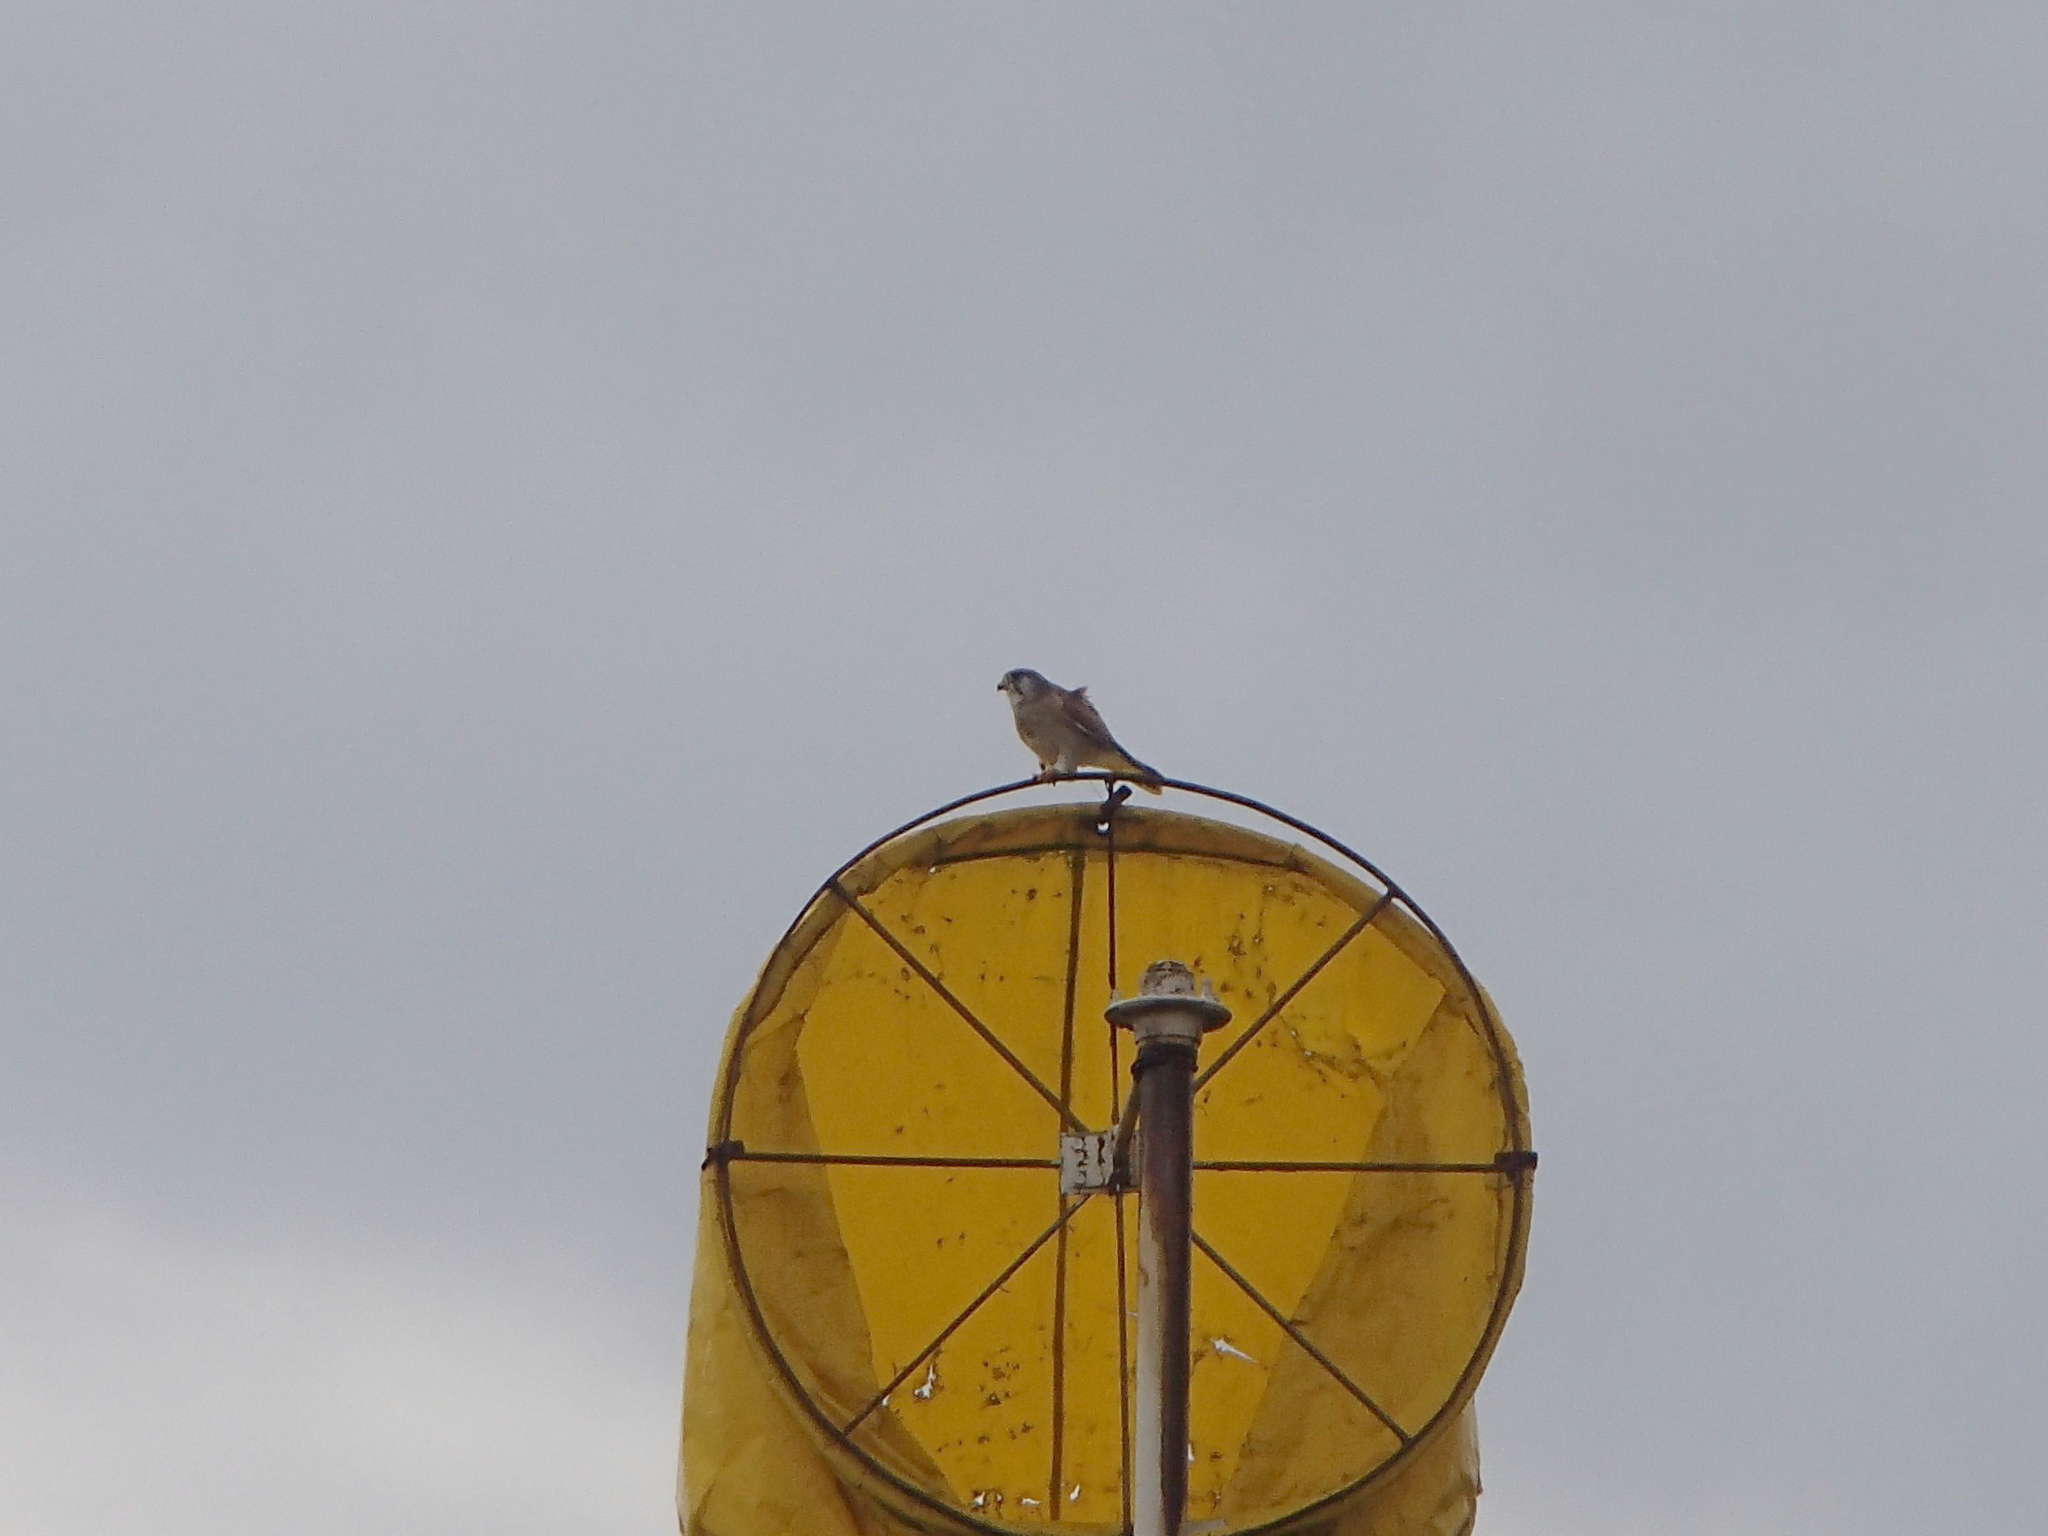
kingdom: Animalia
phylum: Chordata
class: Aves
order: Falconiformes
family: Falconidae
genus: Falco
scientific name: Falco cenchroides
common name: Nankeen kestrel
